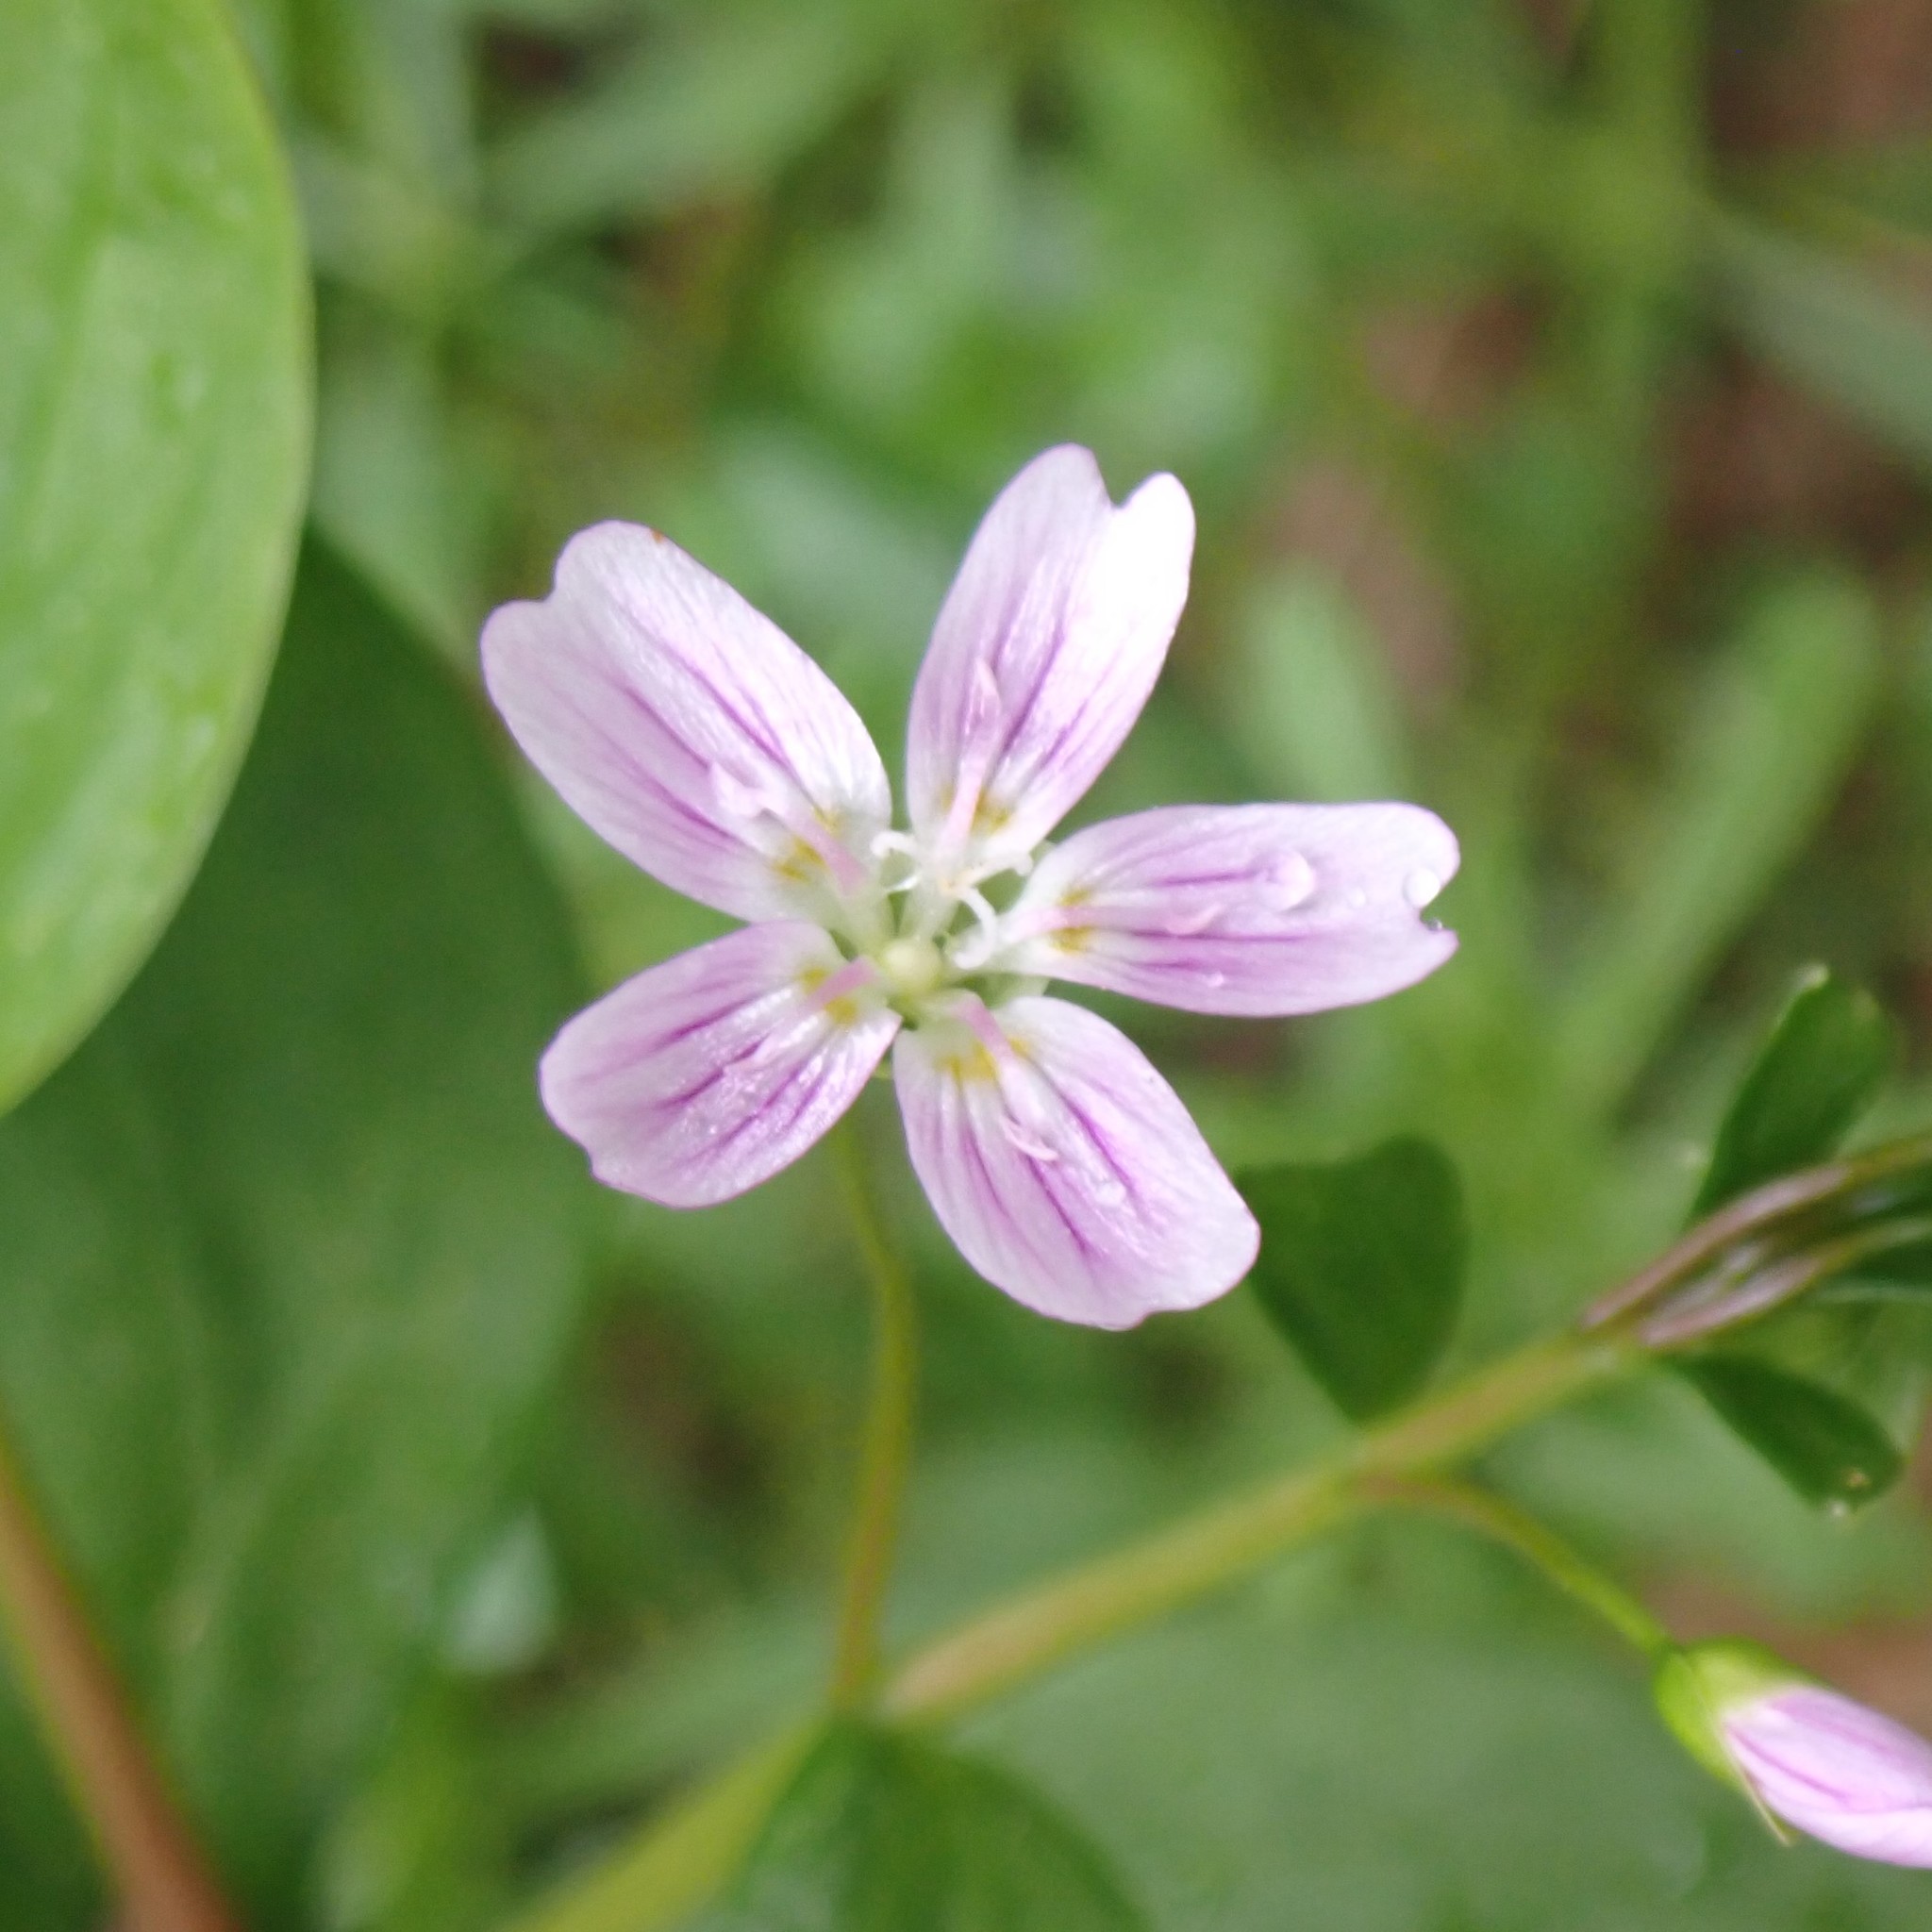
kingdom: Plantae
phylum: Tracheophyta
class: Magnoliopsida
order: Caryophyllales
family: Montiaceae
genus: Claytonia
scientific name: Claytonia sibirica
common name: Pink purslane
